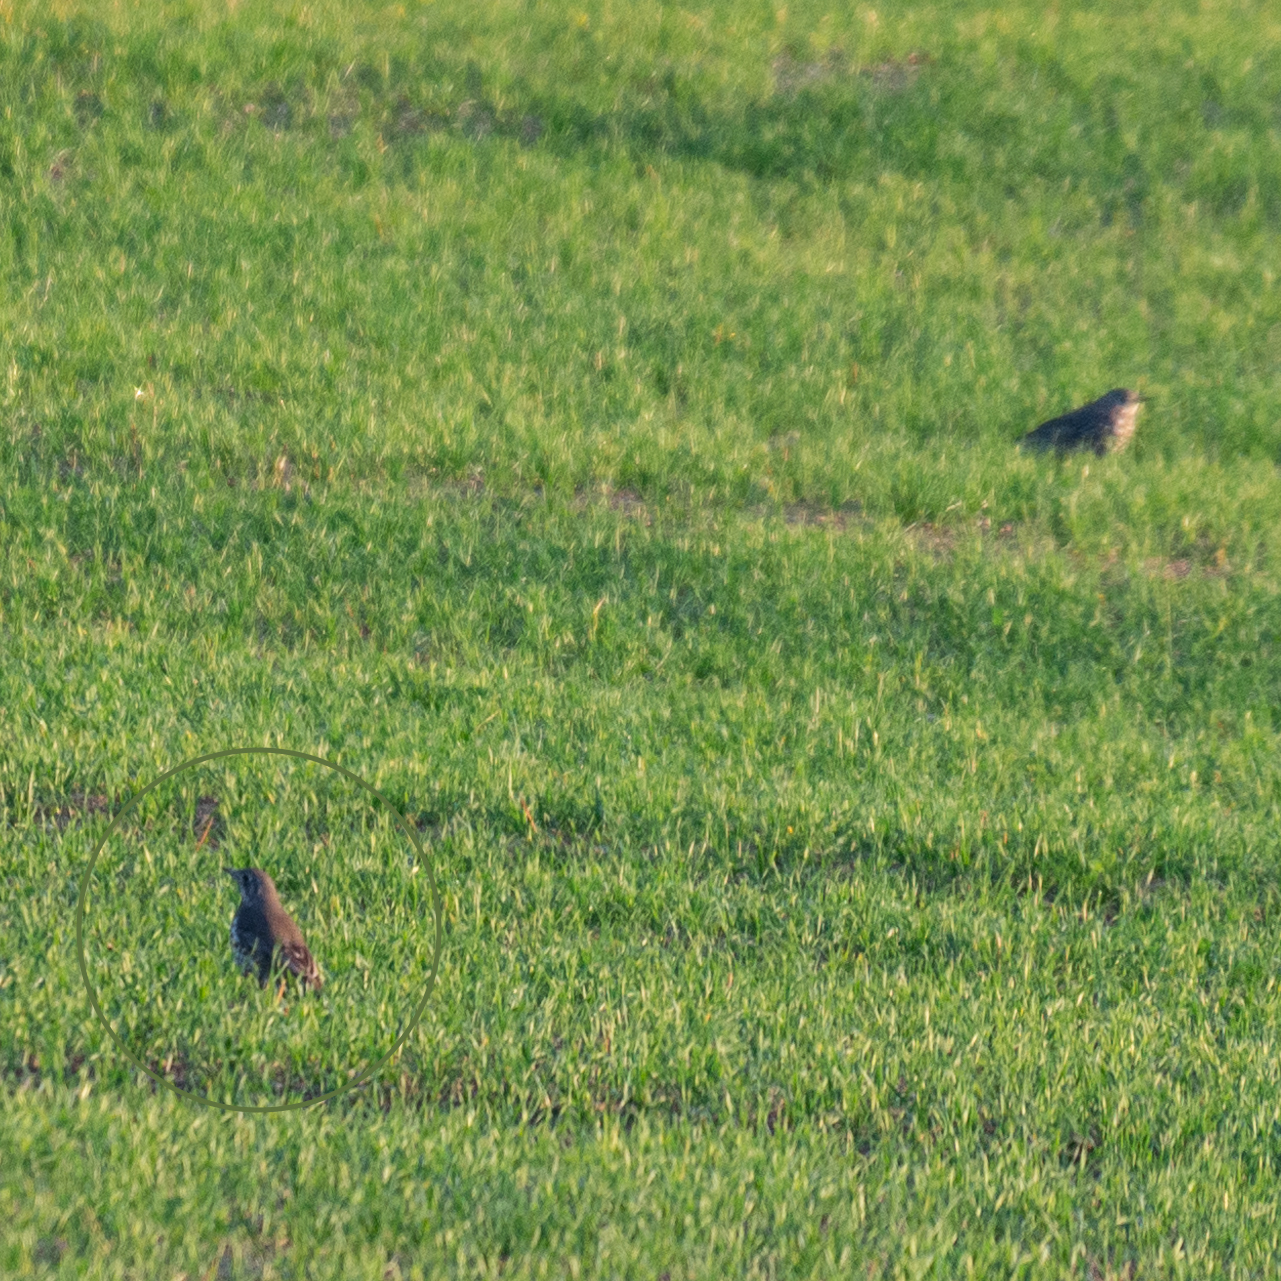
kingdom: Animalia
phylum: Chordata
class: Aves
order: Passeriformes
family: Turdidae
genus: Turdus
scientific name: Turdus viscivorus
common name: Mistle thrush
